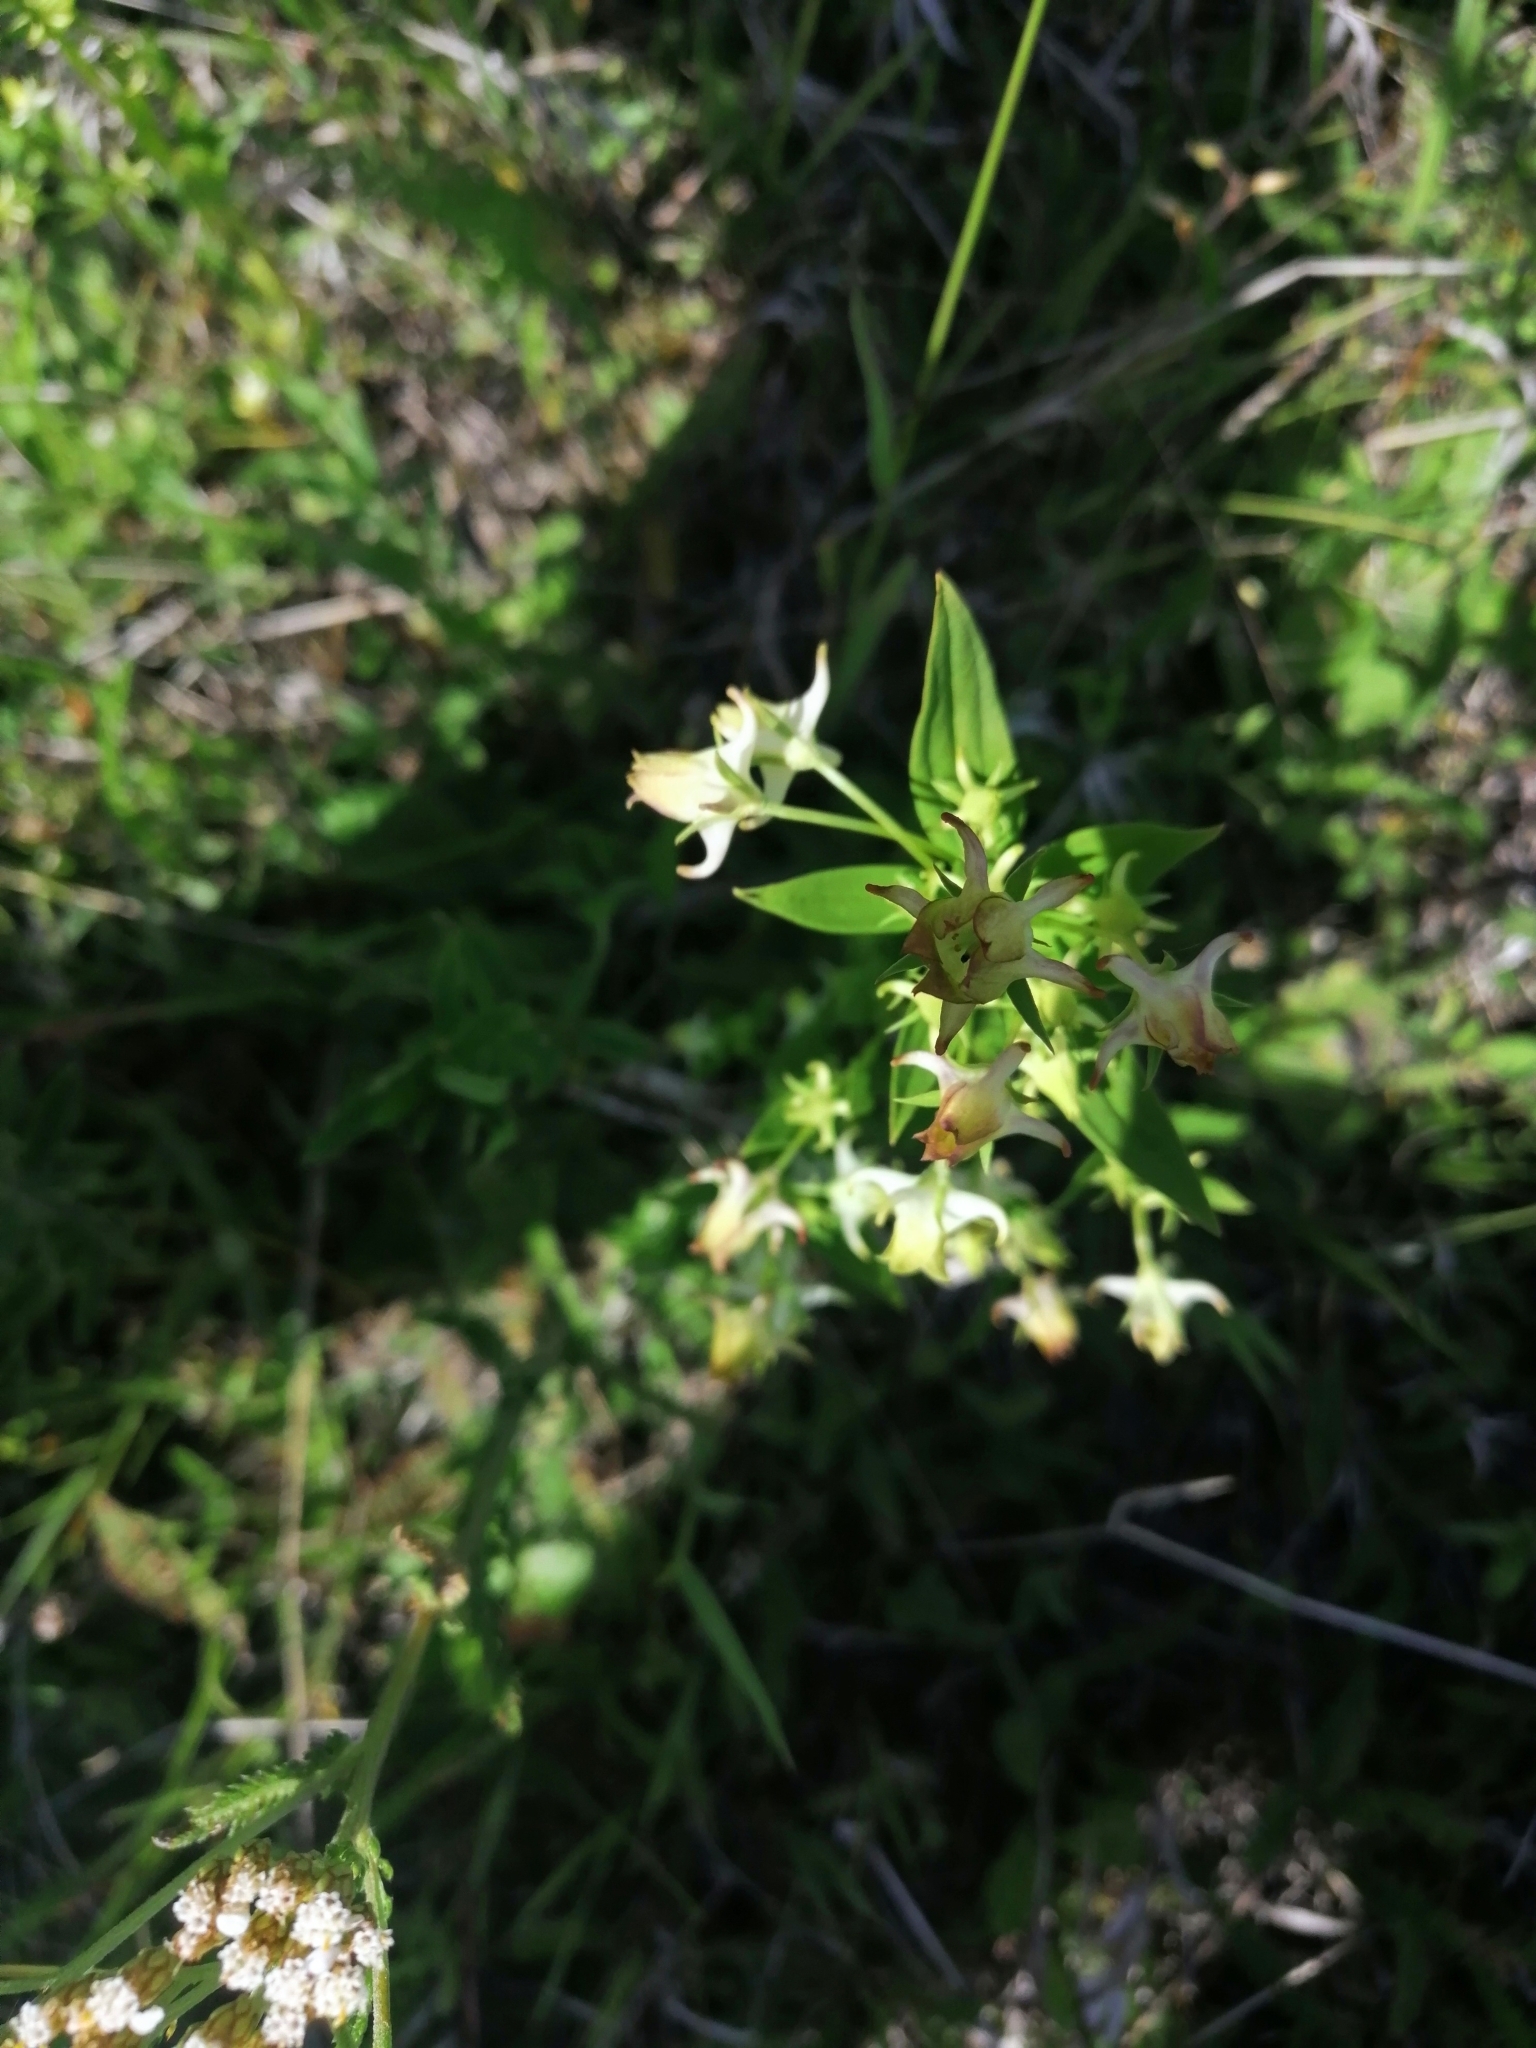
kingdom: Plantae
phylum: Tracheophyta
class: Magnoliopsida
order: Gentianales
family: Gentianaceae
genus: Halenia
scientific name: Halenia corniculata
